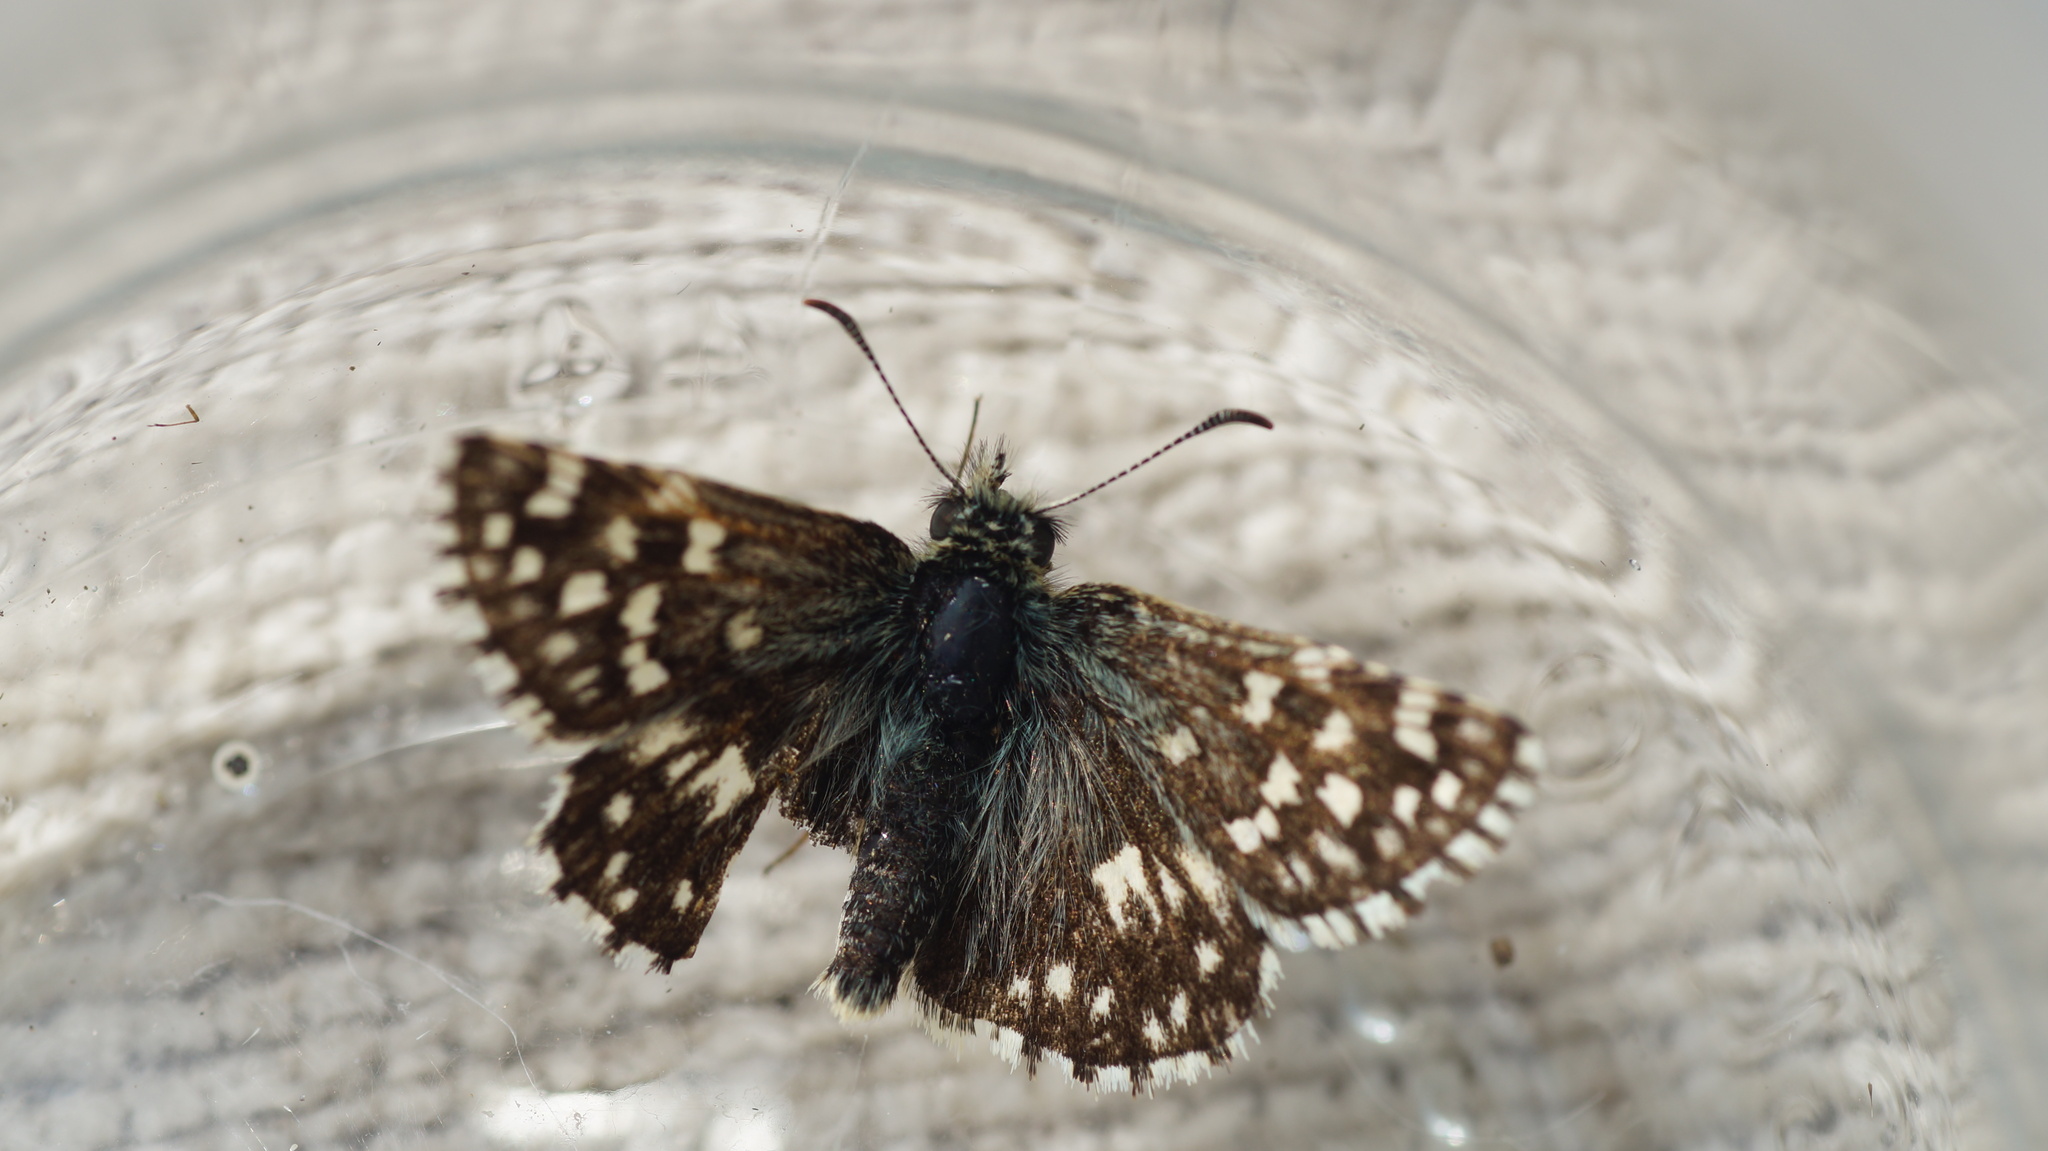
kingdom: Animalia
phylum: Arthropoda
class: Insecta
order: Lepidoptera
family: Hesperiidae
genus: Pyrgus
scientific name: Pyrgus malvae
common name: Grizzled skipper
